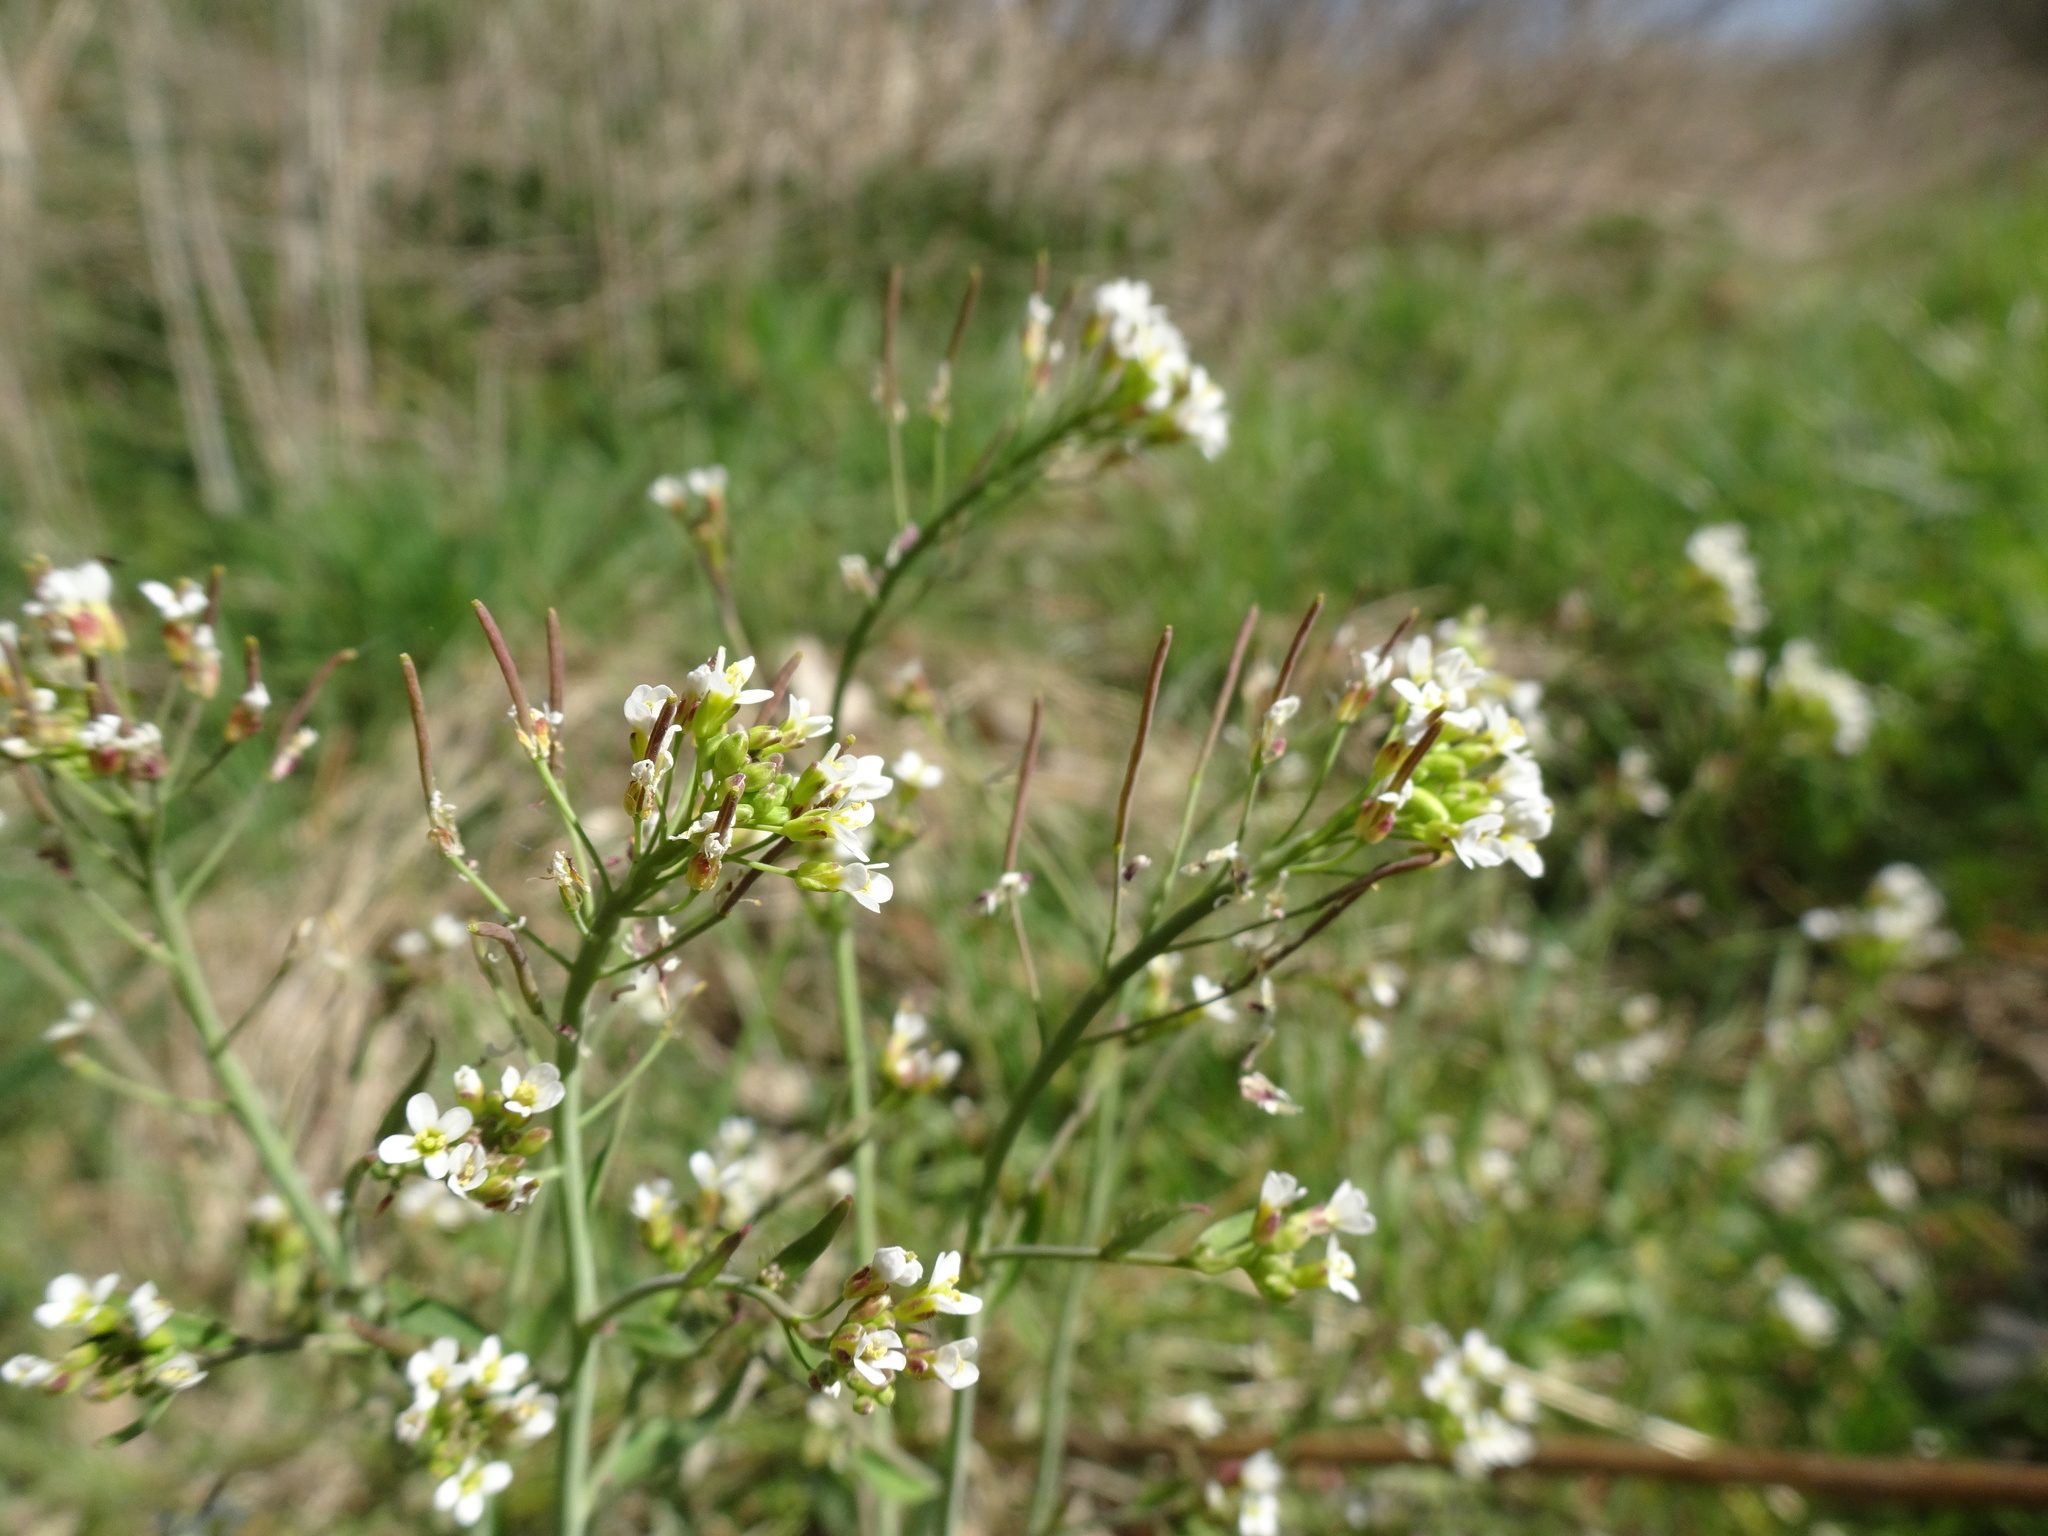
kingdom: Plantae
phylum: Tracheophyta
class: Magnoliopsida
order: Brassicales
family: Brassicaceae
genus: Arabidopsis
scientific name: Arabidopsis thaliana
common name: Thale cress
